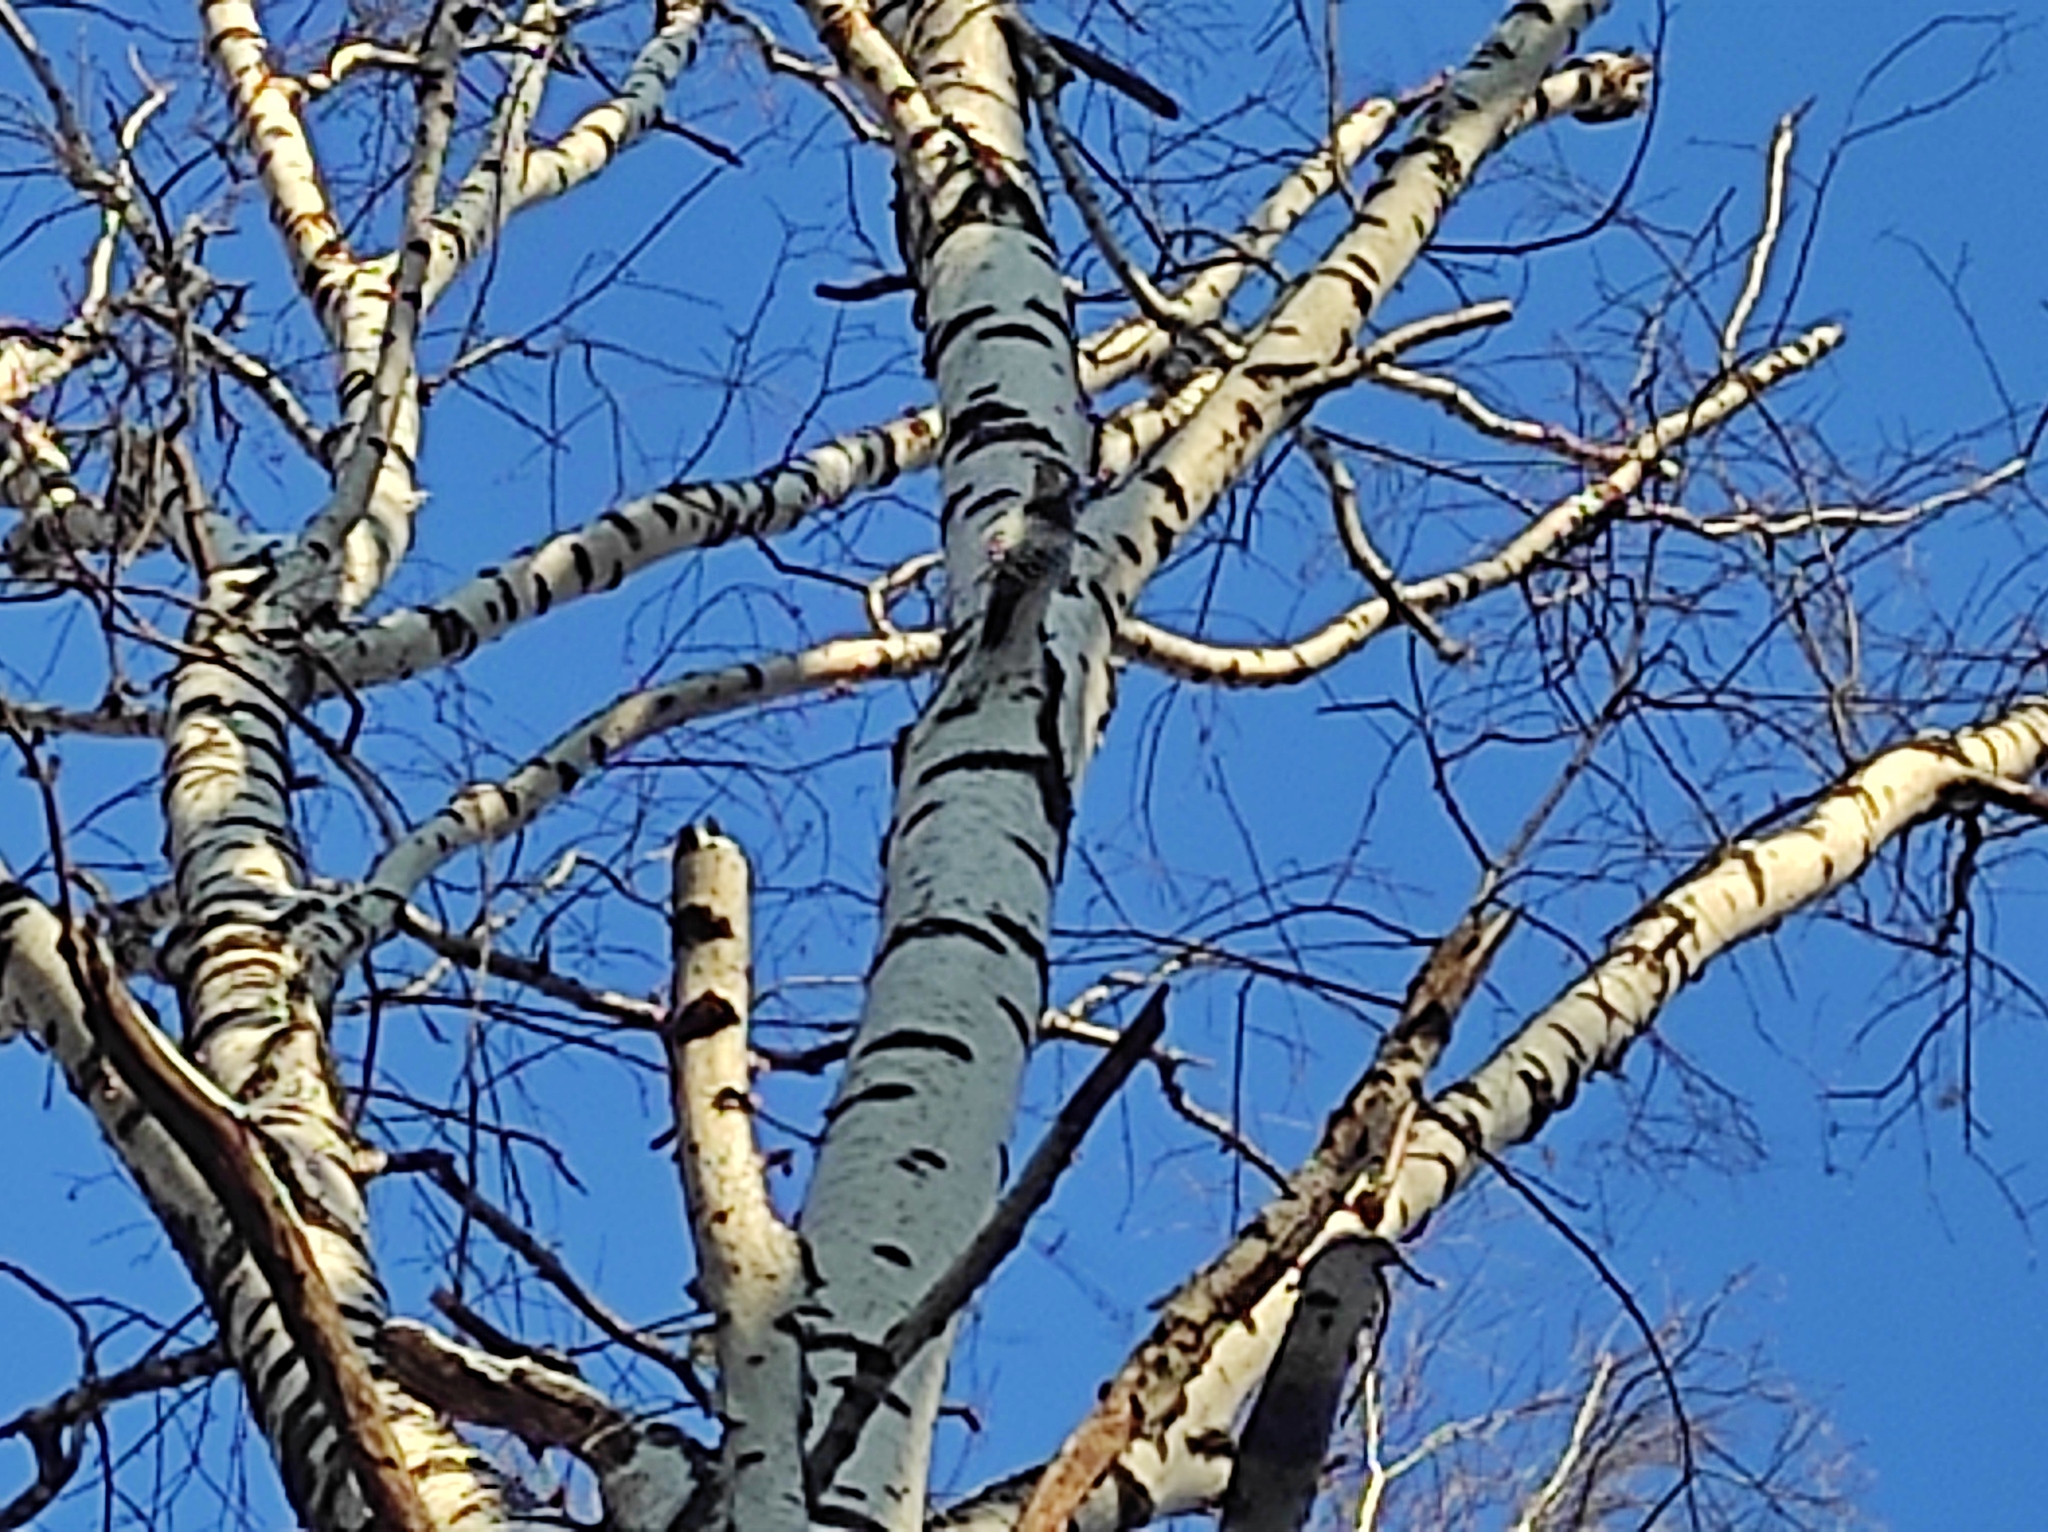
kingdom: Animalia
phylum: Chordata
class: Aves
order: Piciformes
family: Picidae
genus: Dendrocopos
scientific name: Dendrocopos leucotos
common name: White-backed woodpecker
